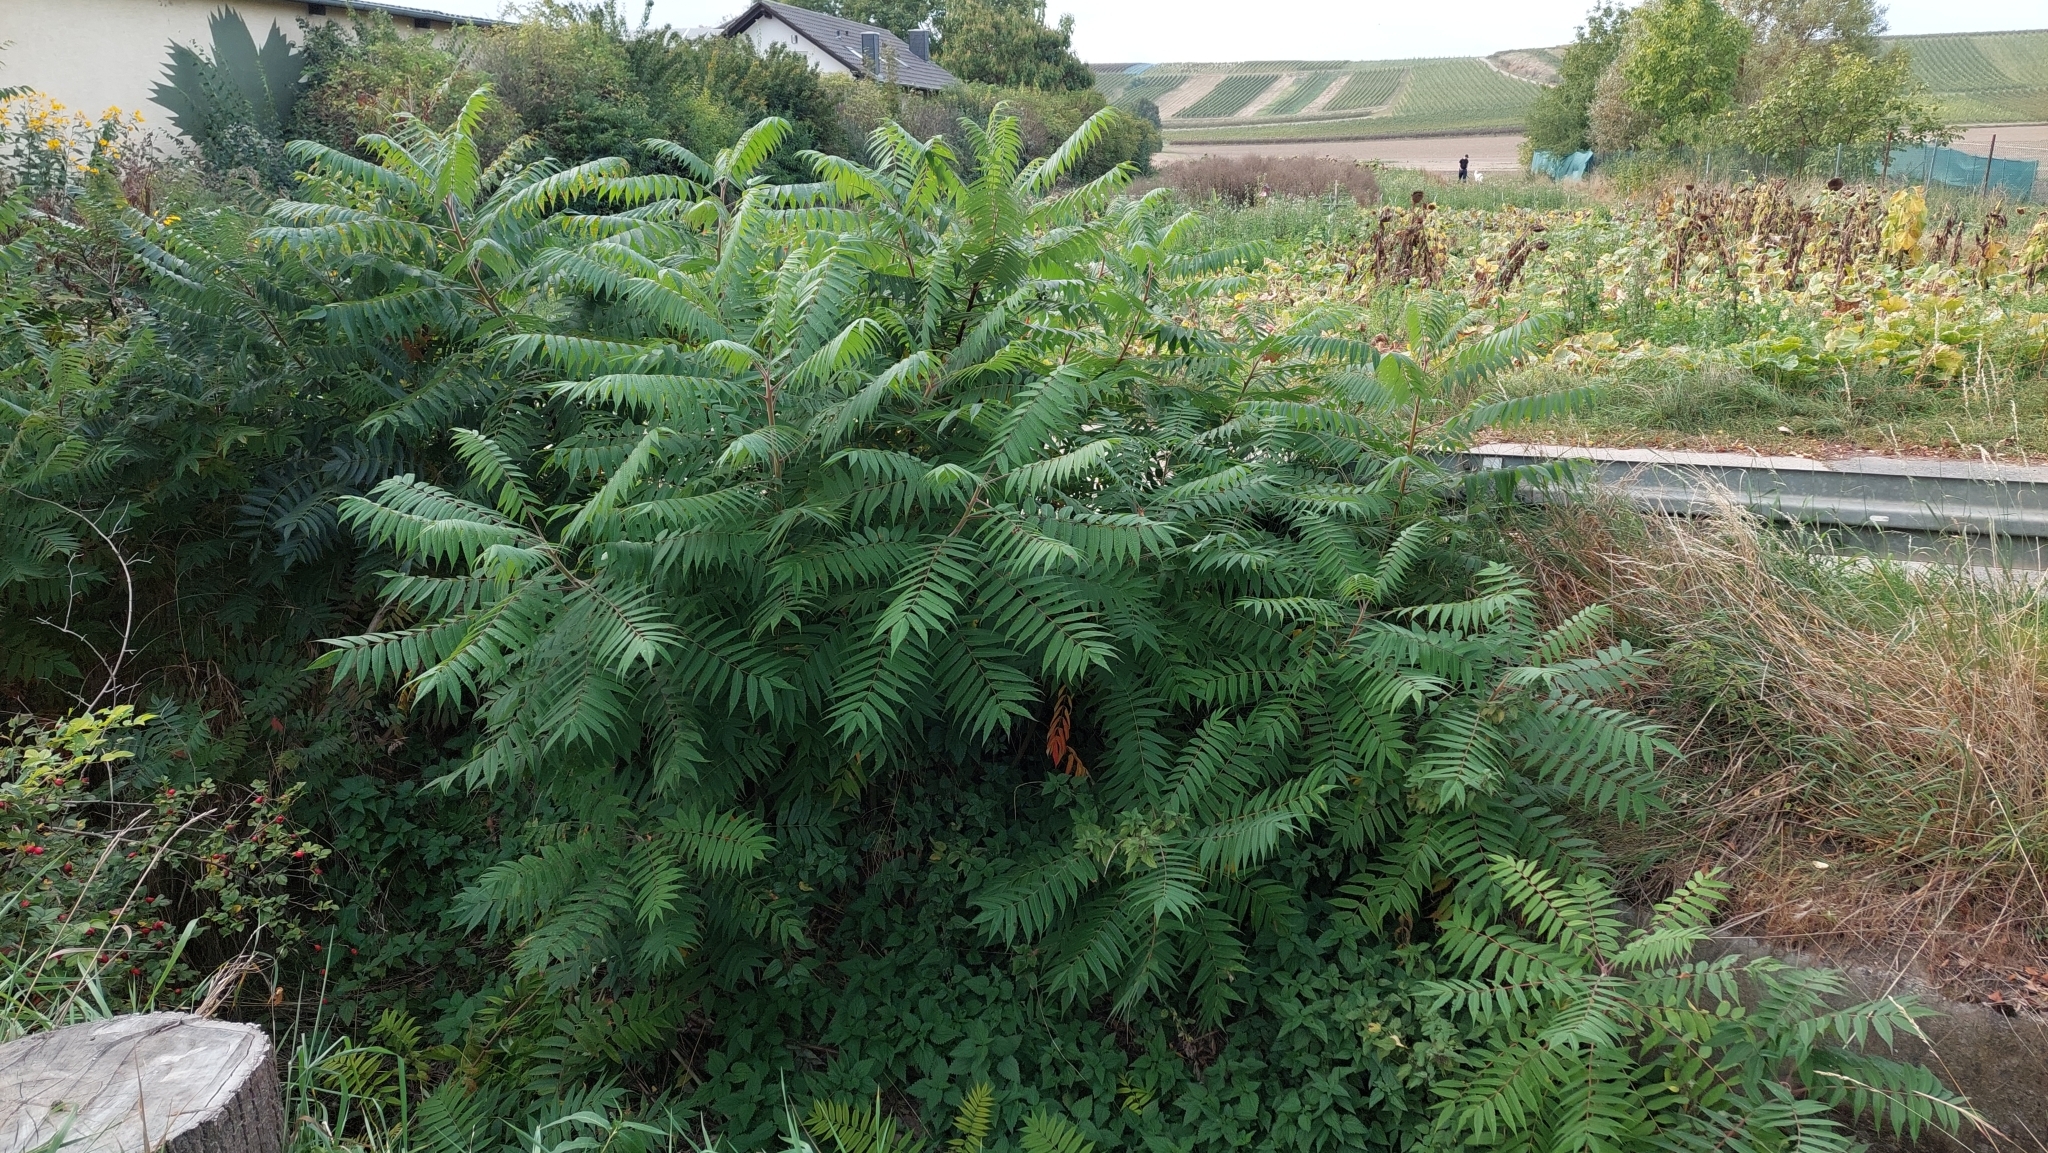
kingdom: Plantae
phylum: Tracheophyta
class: Magnoliopsida
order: Sapindales
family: Simaroubaceae
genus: Ailanthus
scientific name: Ailanthus altissima
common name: Tree-of-heaven
